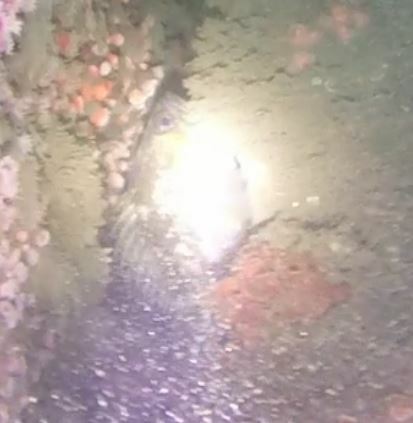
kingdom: Animalia
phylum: Chordata
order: Scorpaeniformes
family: Sebastidae
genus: Sebastes
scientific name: Sebastes carnatus
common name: Gopher rockfish
